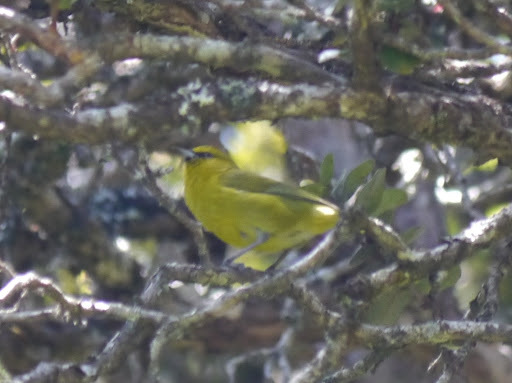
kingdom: Animalia
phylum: Chordata
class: Aves
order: Passeriformes
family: Fringillidae
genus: Chlorodrepanis
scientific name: Chlorodrepanis virens
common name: Hawaii amakihi
